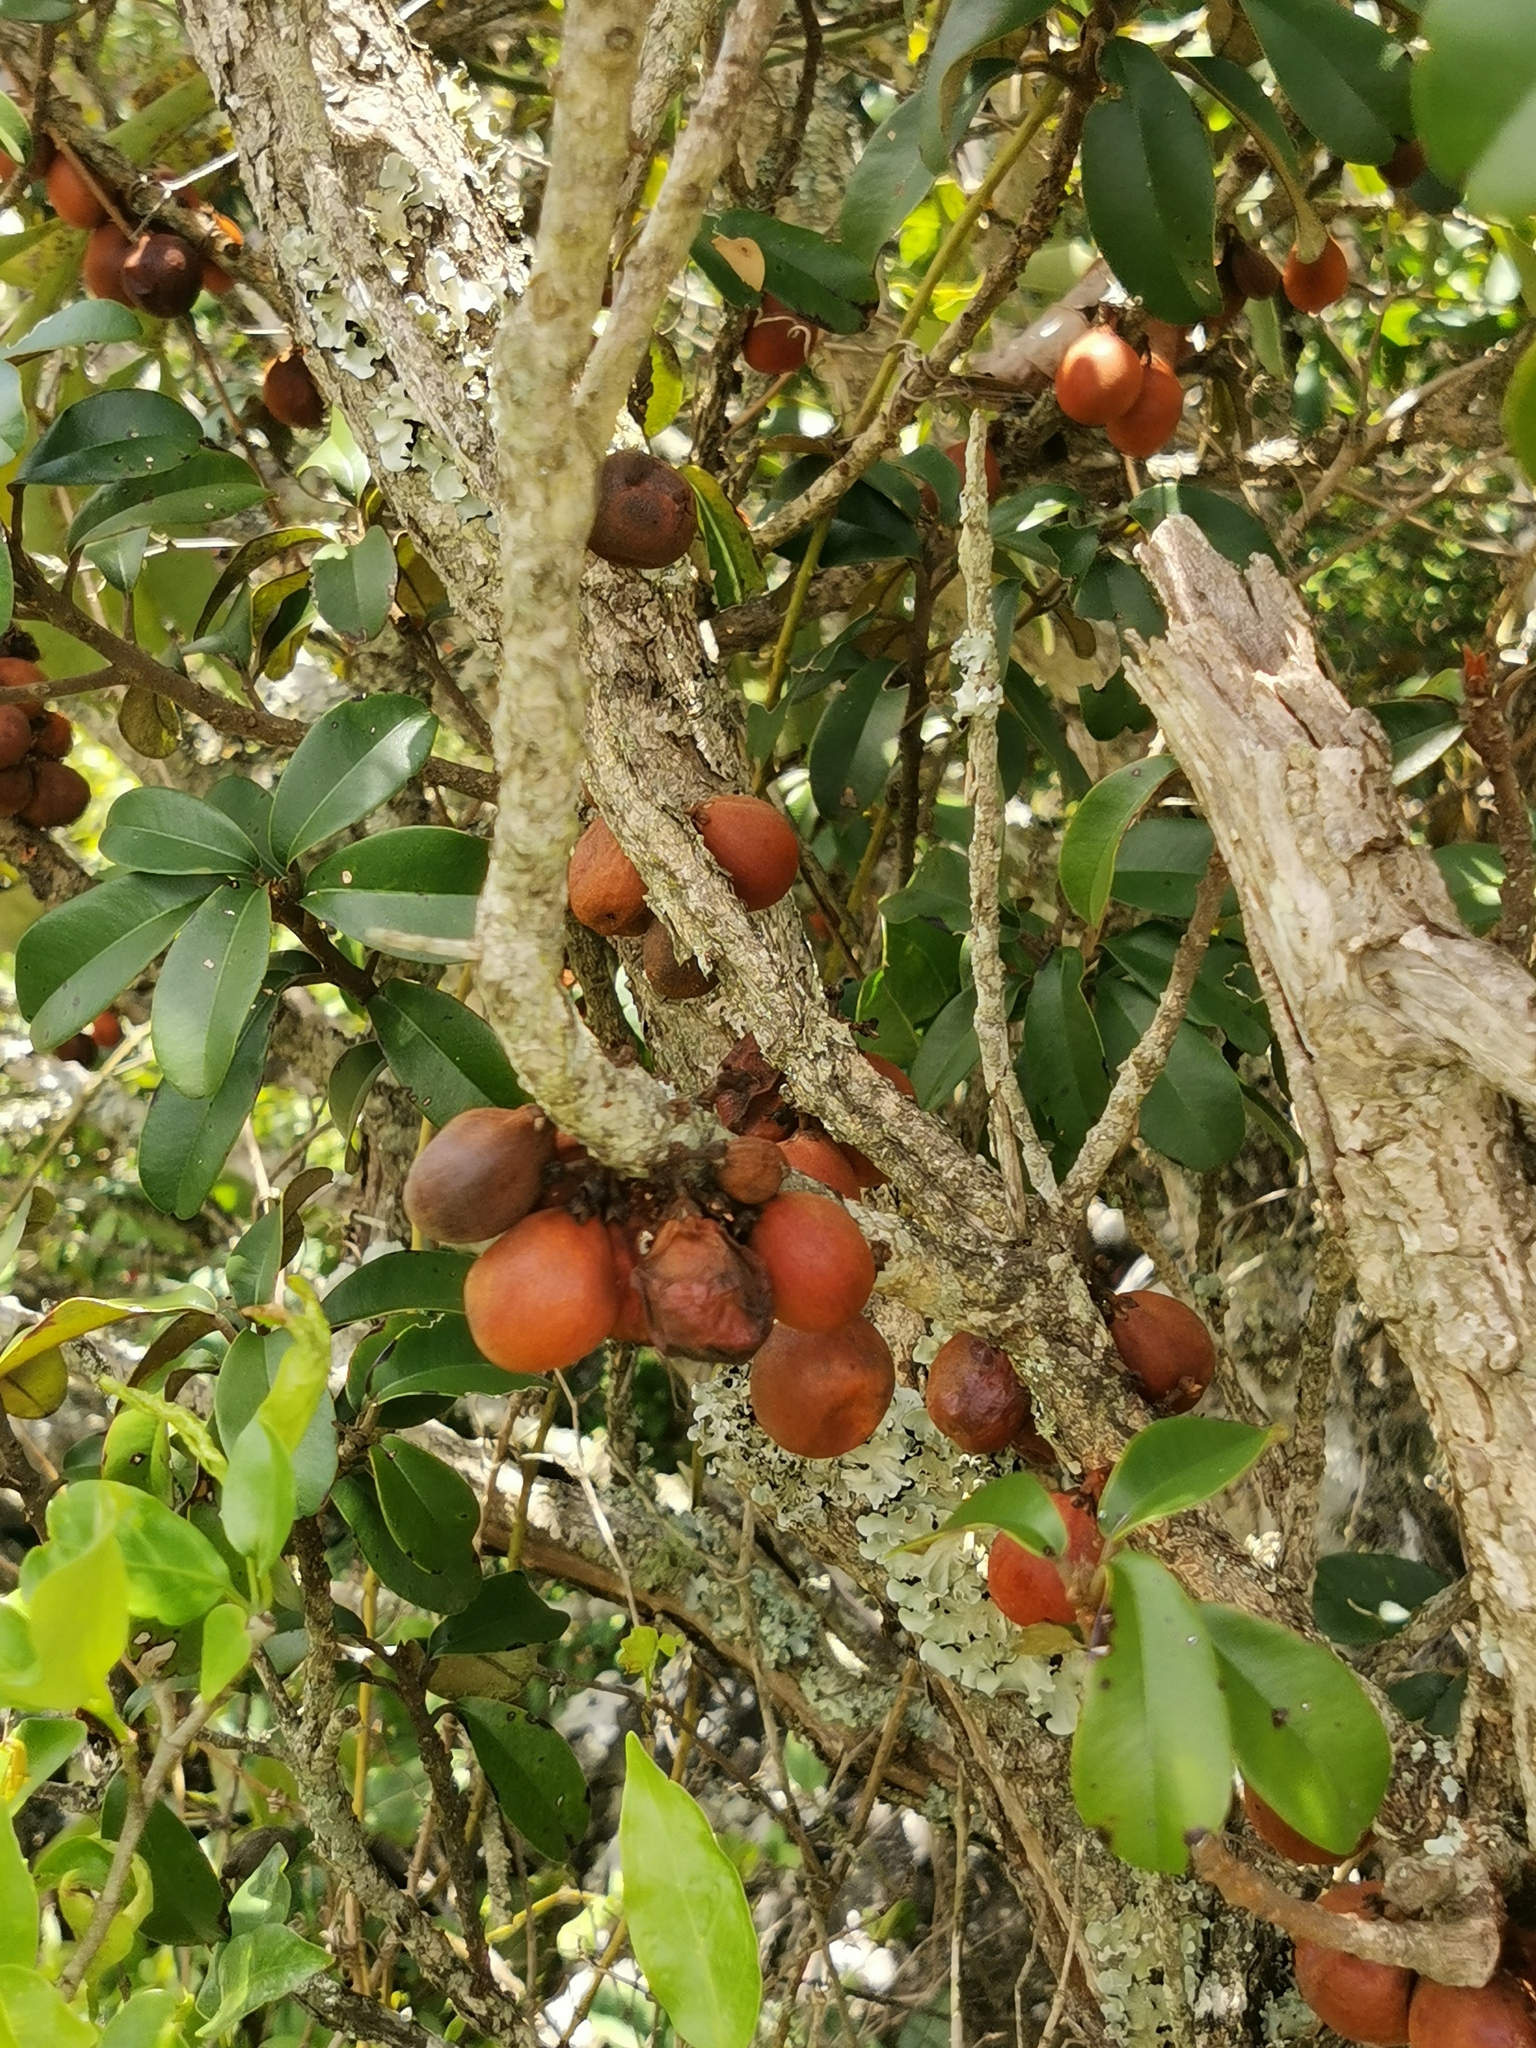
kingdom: Plantae
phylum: Tracheophyta
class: Magnoliopsida
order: Ericales
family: Sapotaceae
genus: Englerophytum
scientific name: Englerophytum magalismontanum
